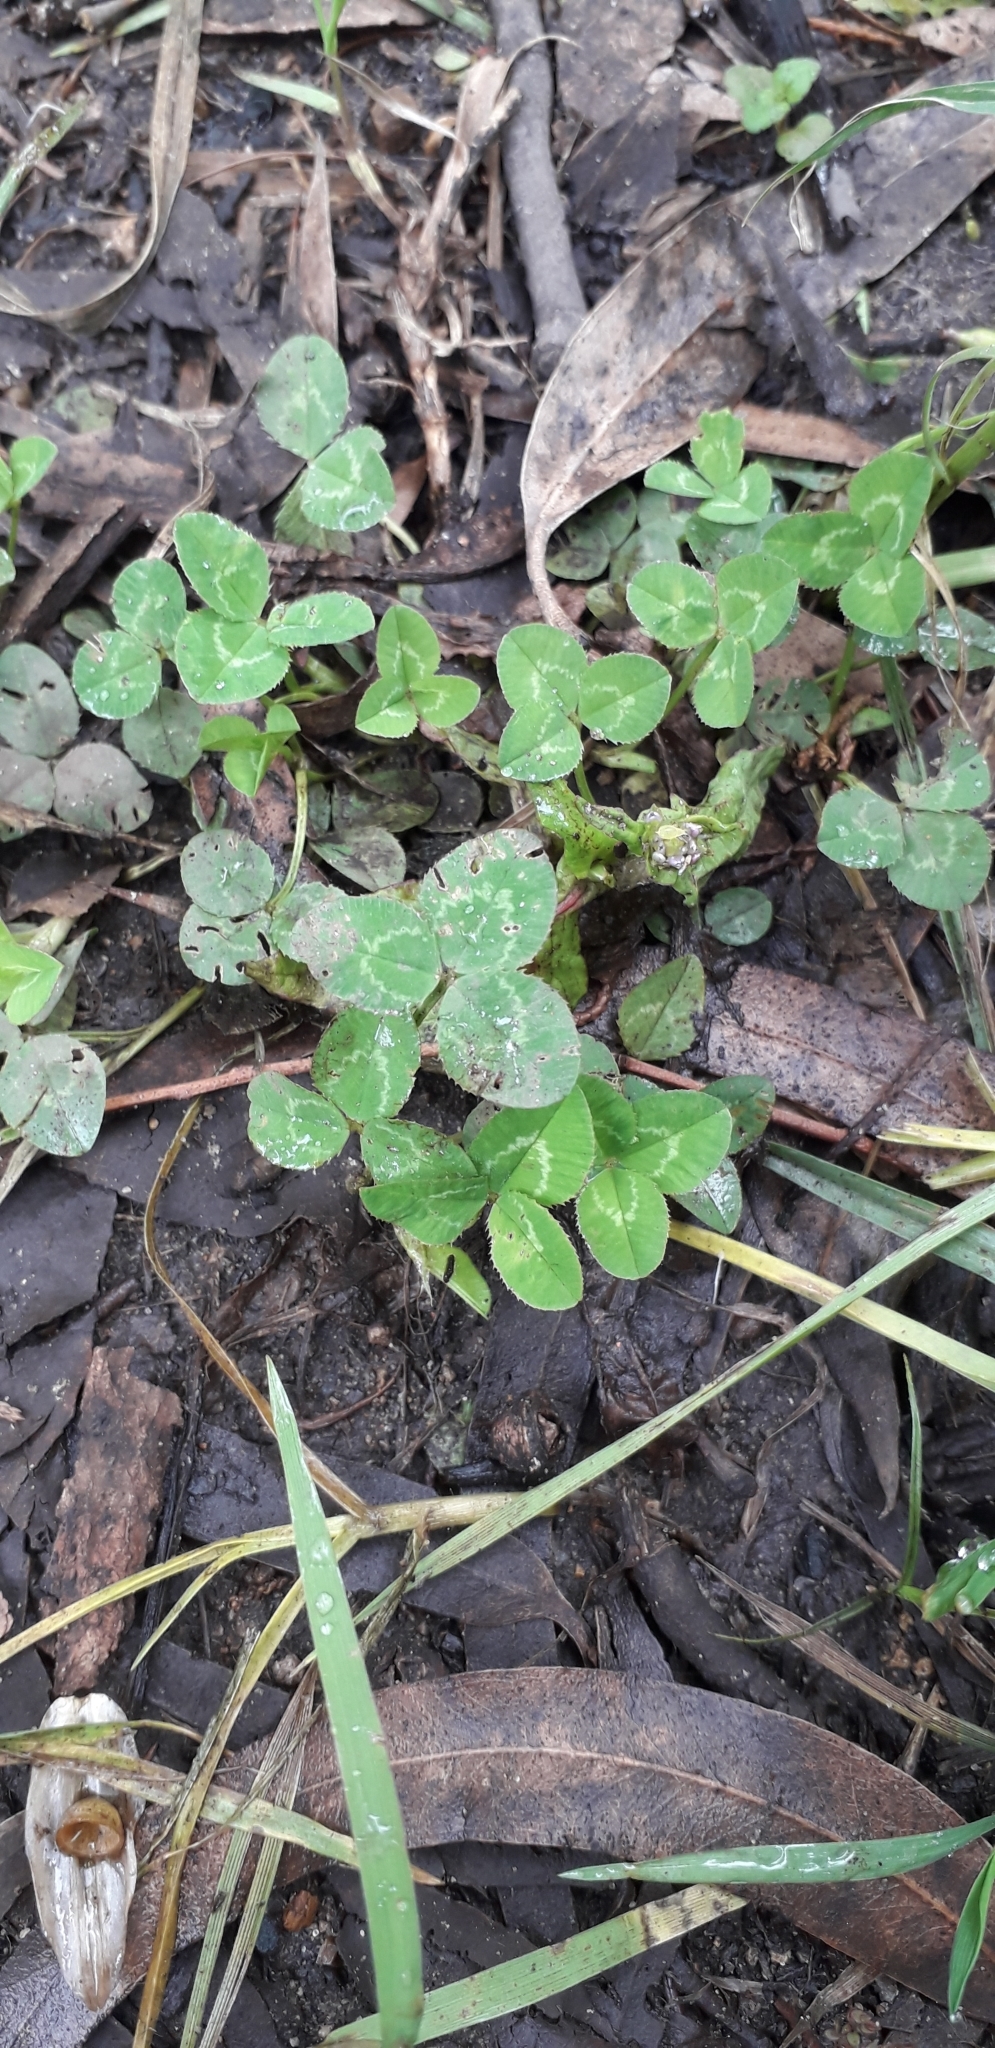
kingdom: Plantae
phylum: Tracheophyta
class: Magnoliopsida
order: Fabales
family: Fabaceae
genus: Trifolium
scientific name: Trifolium repens
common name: White clover
